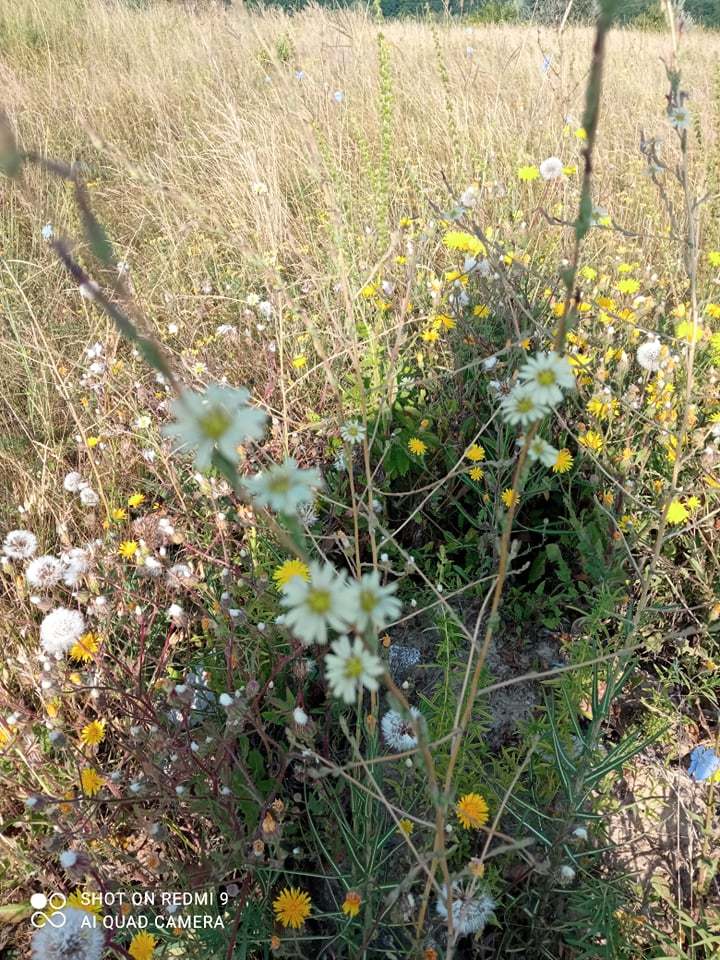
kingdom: Plantae
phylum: Tracheophyta
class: Magnoliopsida
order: Asterales
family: Asteraceae
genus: Lactuca
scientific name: Lactuca serriola
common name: Prickly lettuce
